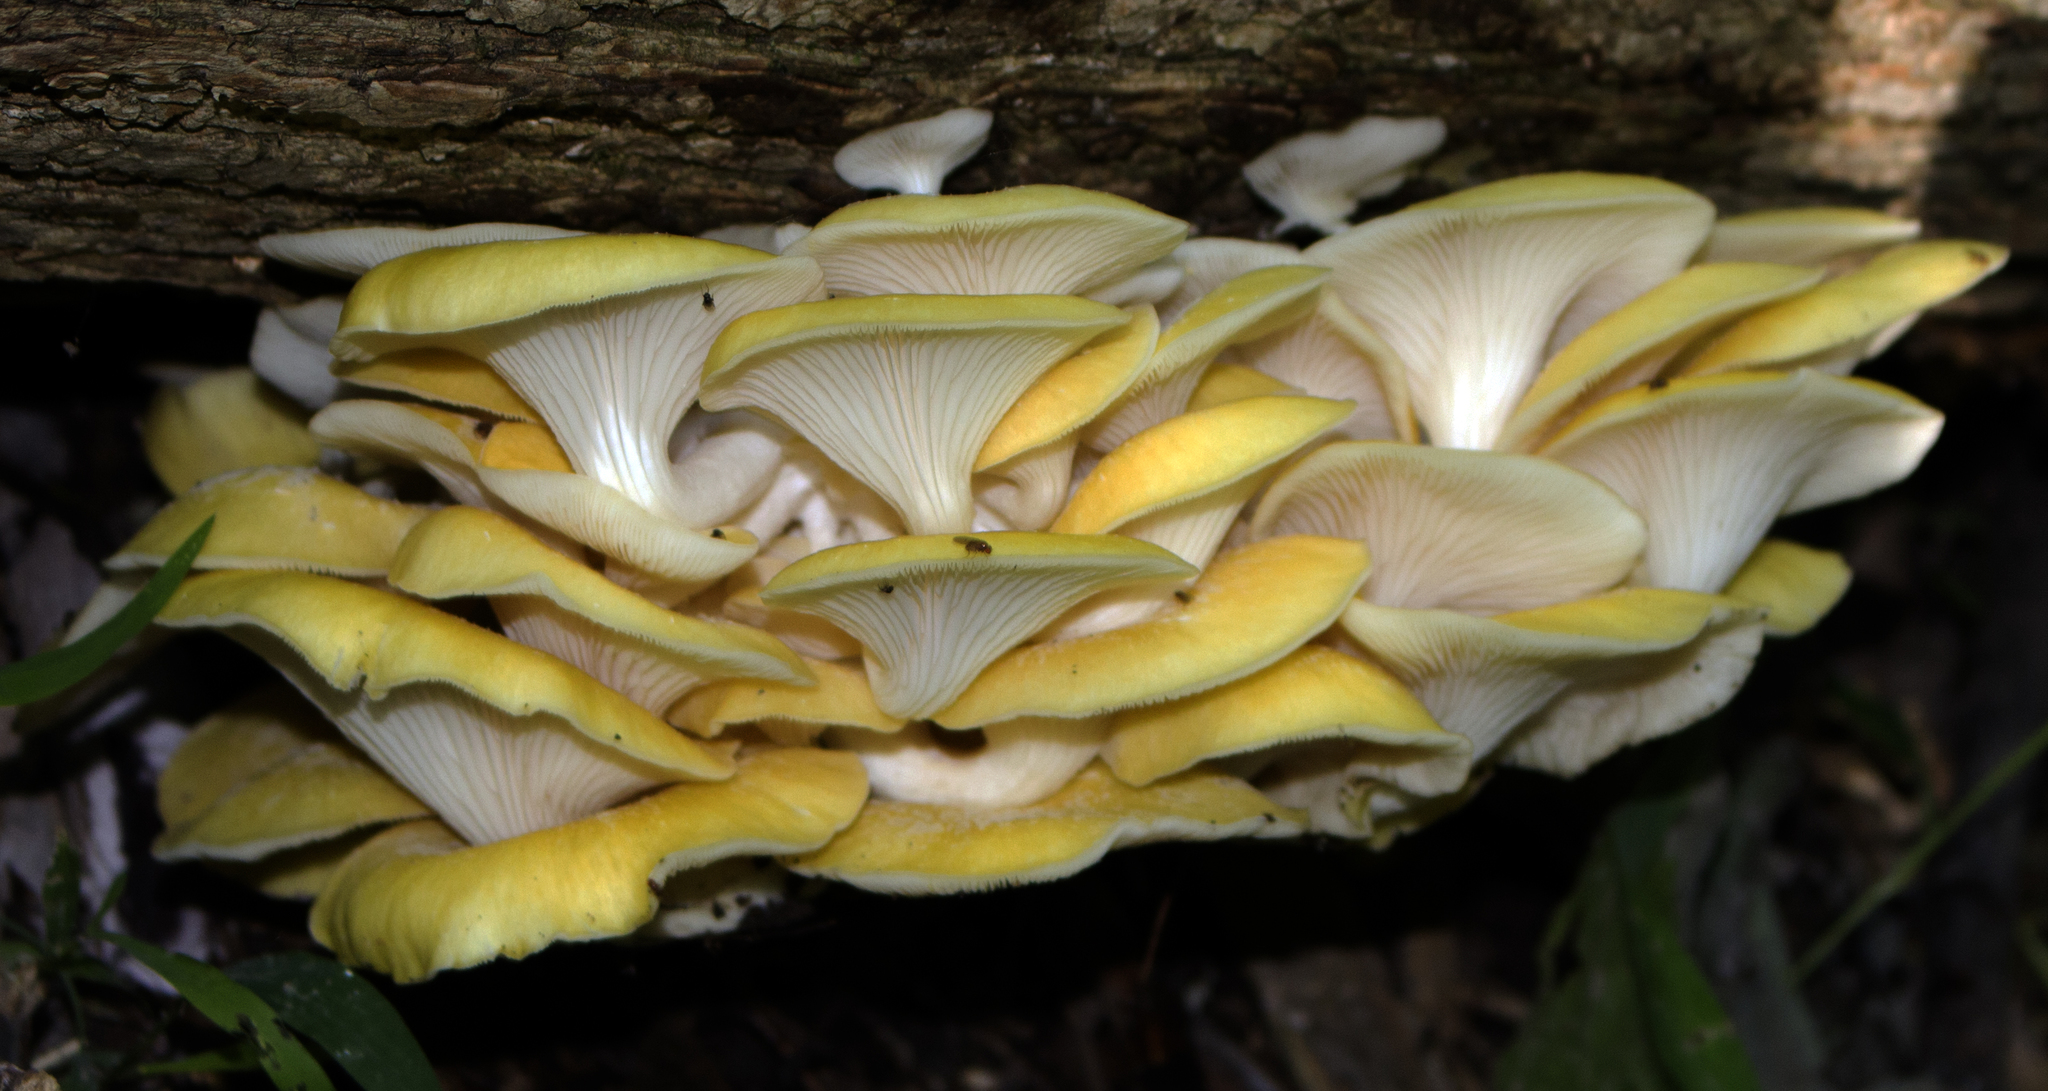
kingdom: Fungi
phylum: Basidiomycota
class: Agaricomycetes
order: Agaricales
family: Pleurotaceae
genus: Pleurotus
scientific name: Pleurotus citrinopileatus
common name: Golden oyster mushroom
